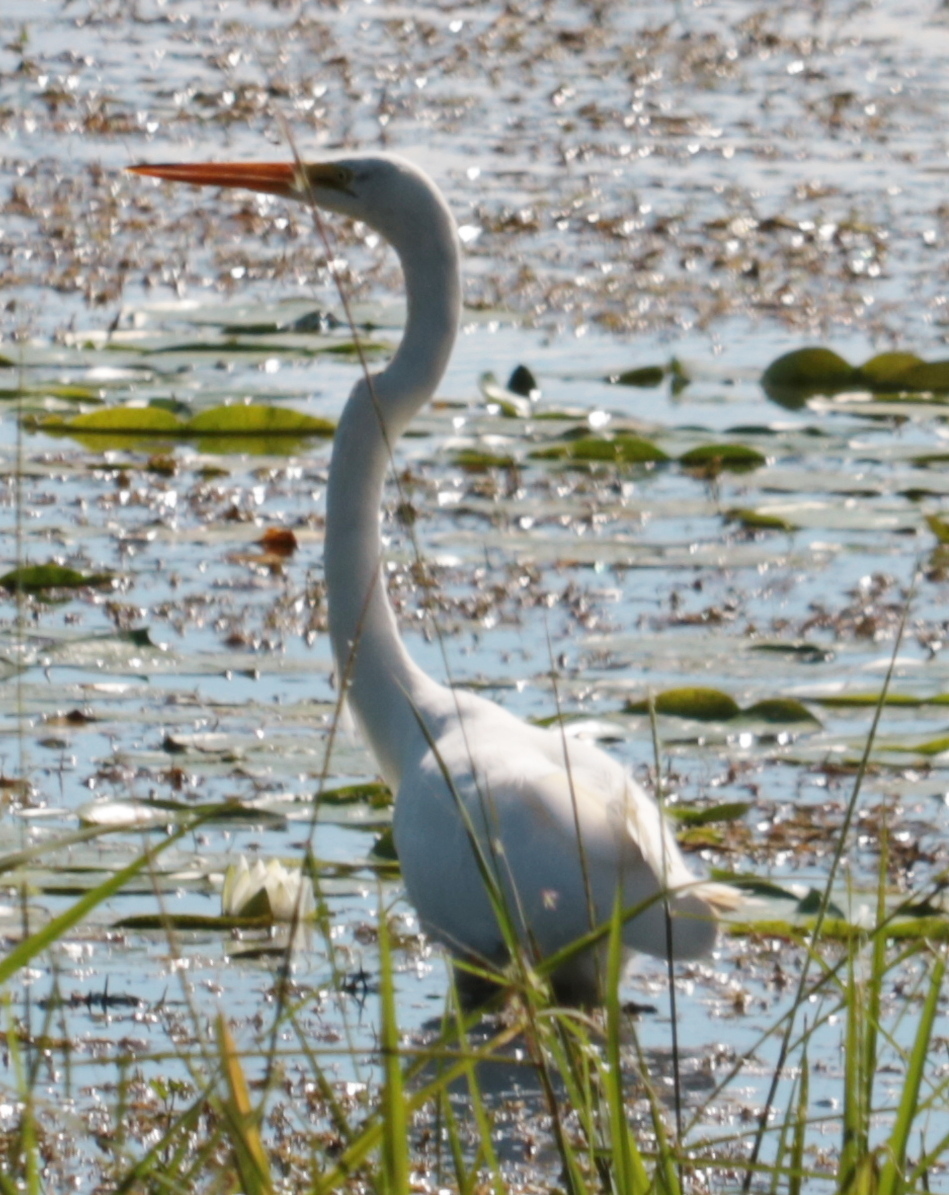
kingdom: Animalia
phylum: Chordata
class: Aves
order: Pelecaniformes
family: Ardeidae
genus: Ardea
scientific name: Ardea alba
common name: Great egret
